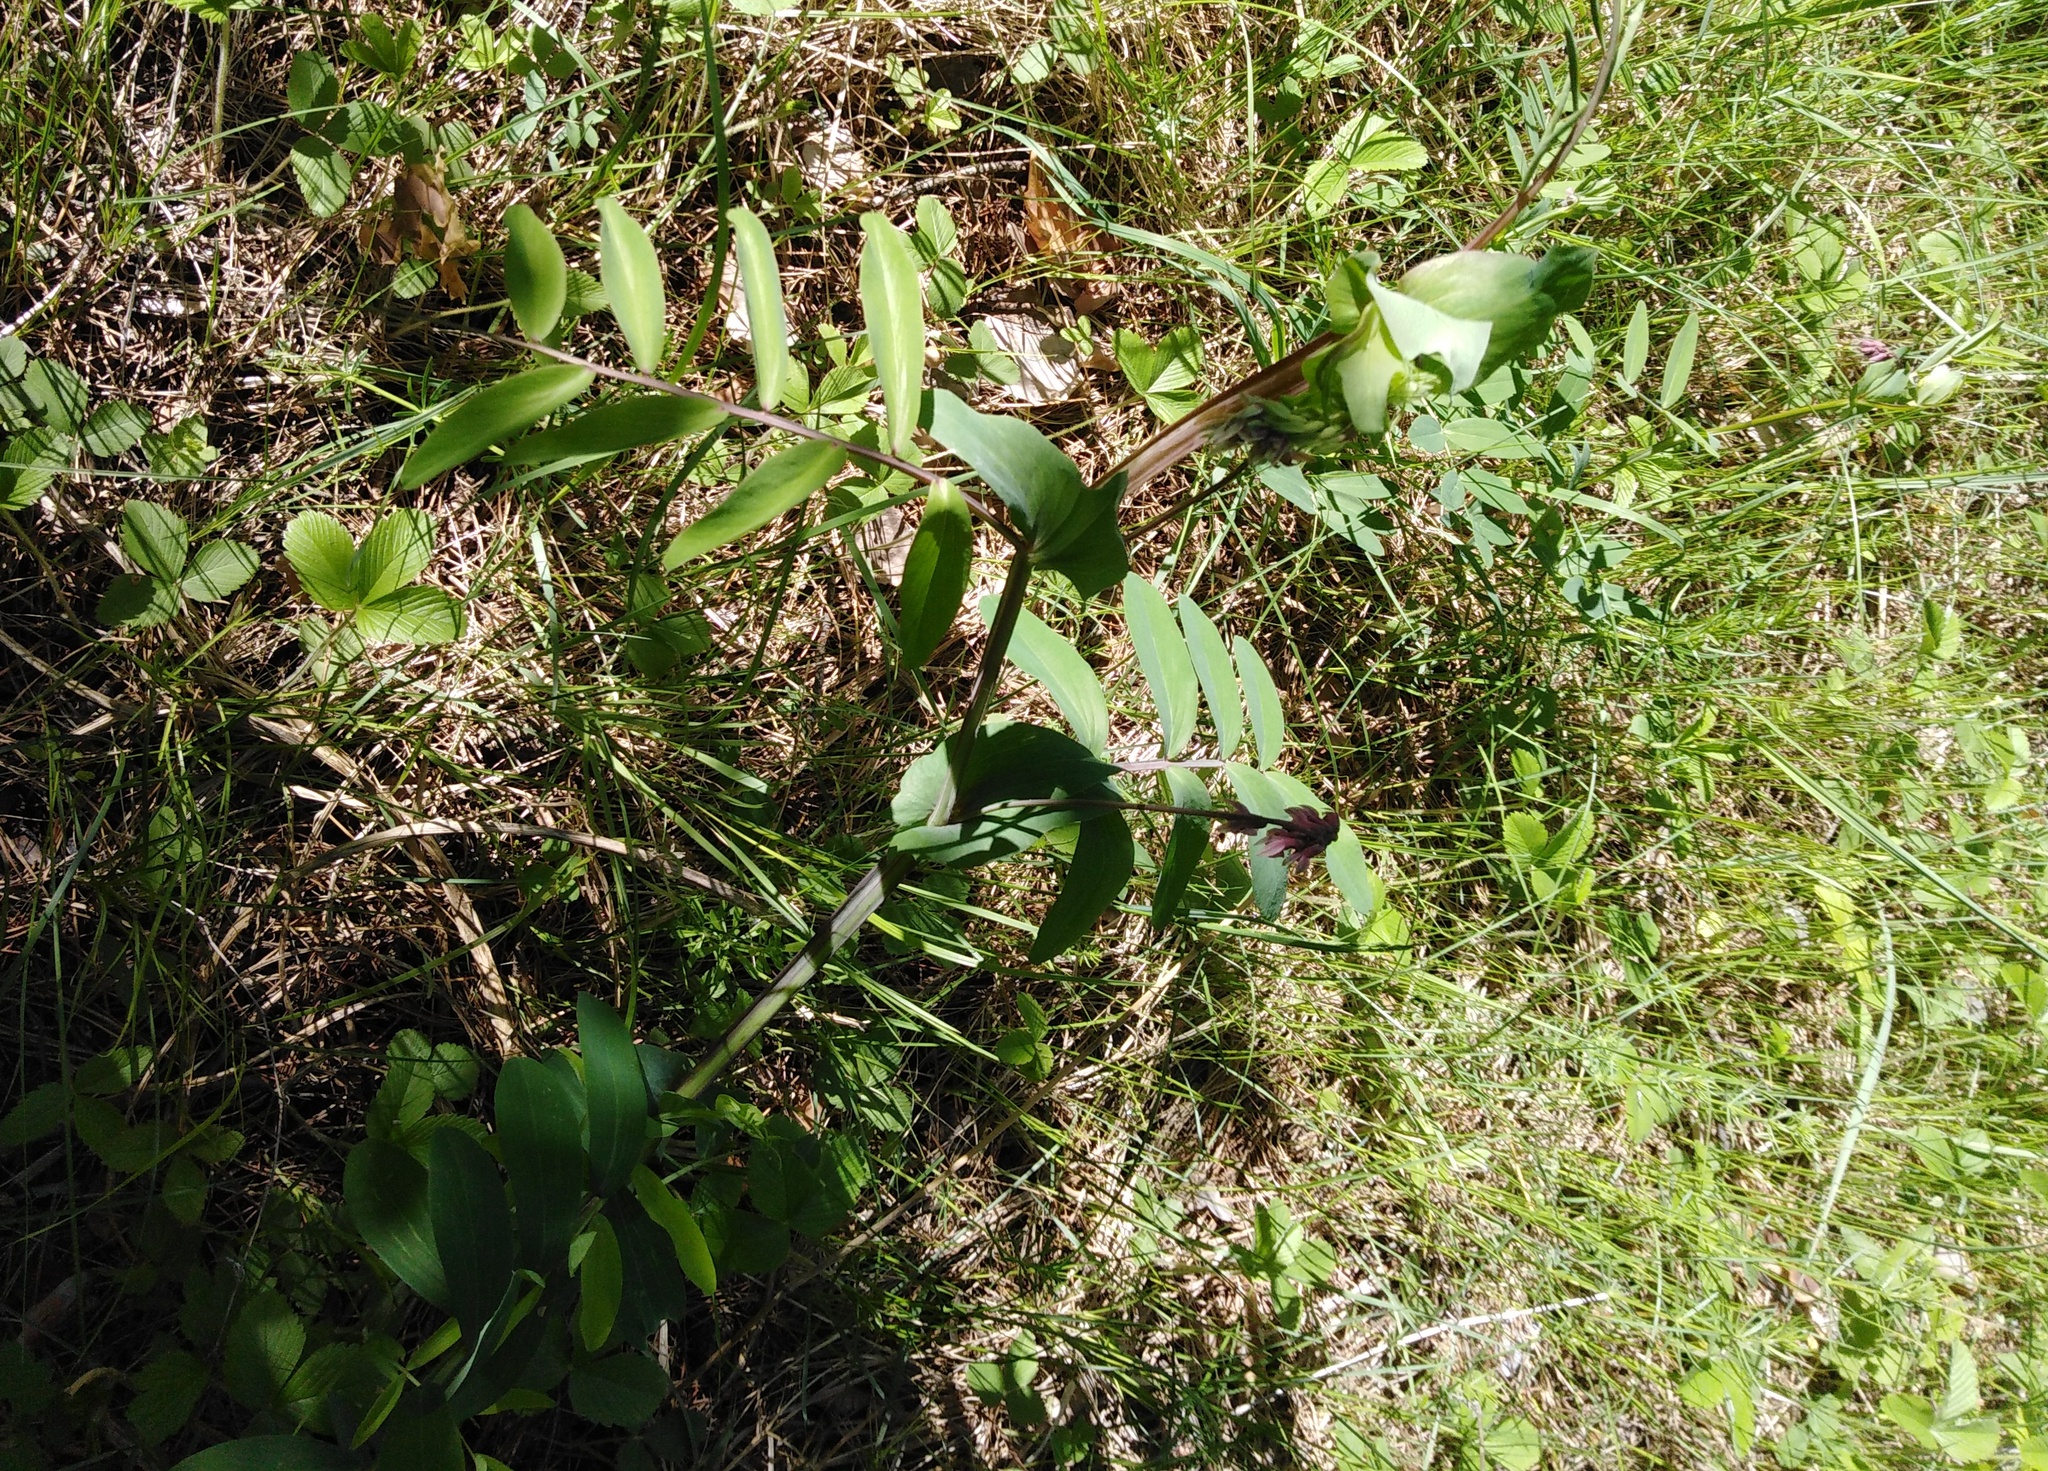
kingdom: Plantae
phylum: Tracheophyta
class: Magnoliopsida
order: Fabales
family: Fabaceae
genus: Lathyrus
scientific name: Lathyrus pisiformis
